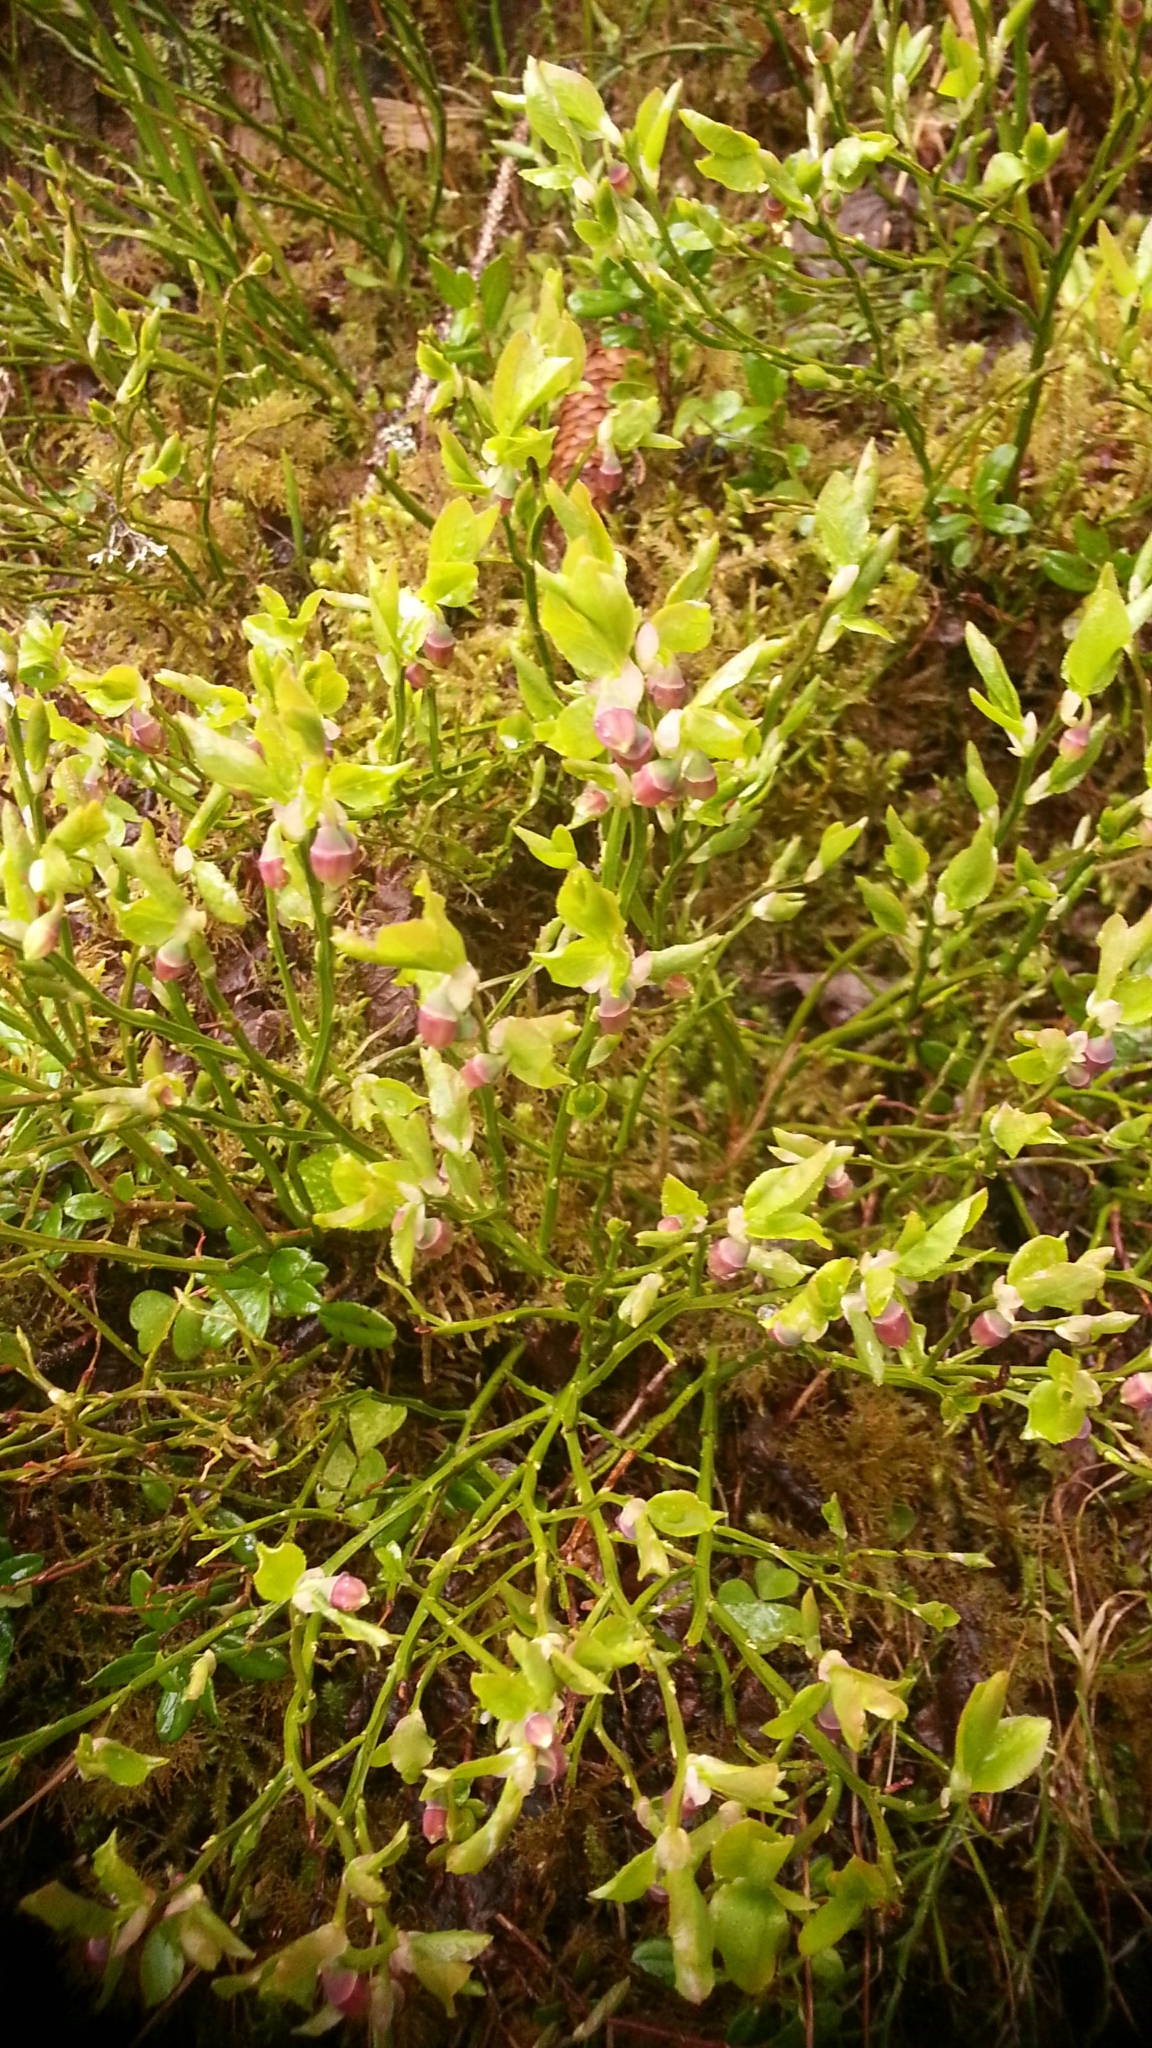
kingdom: Plantae
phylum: Tracheophyta
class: Magnoliopsida
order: Ericales
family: Ericaceae
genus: Vaccinium
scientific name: Vaccinium myrtillus
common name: Bilberry
